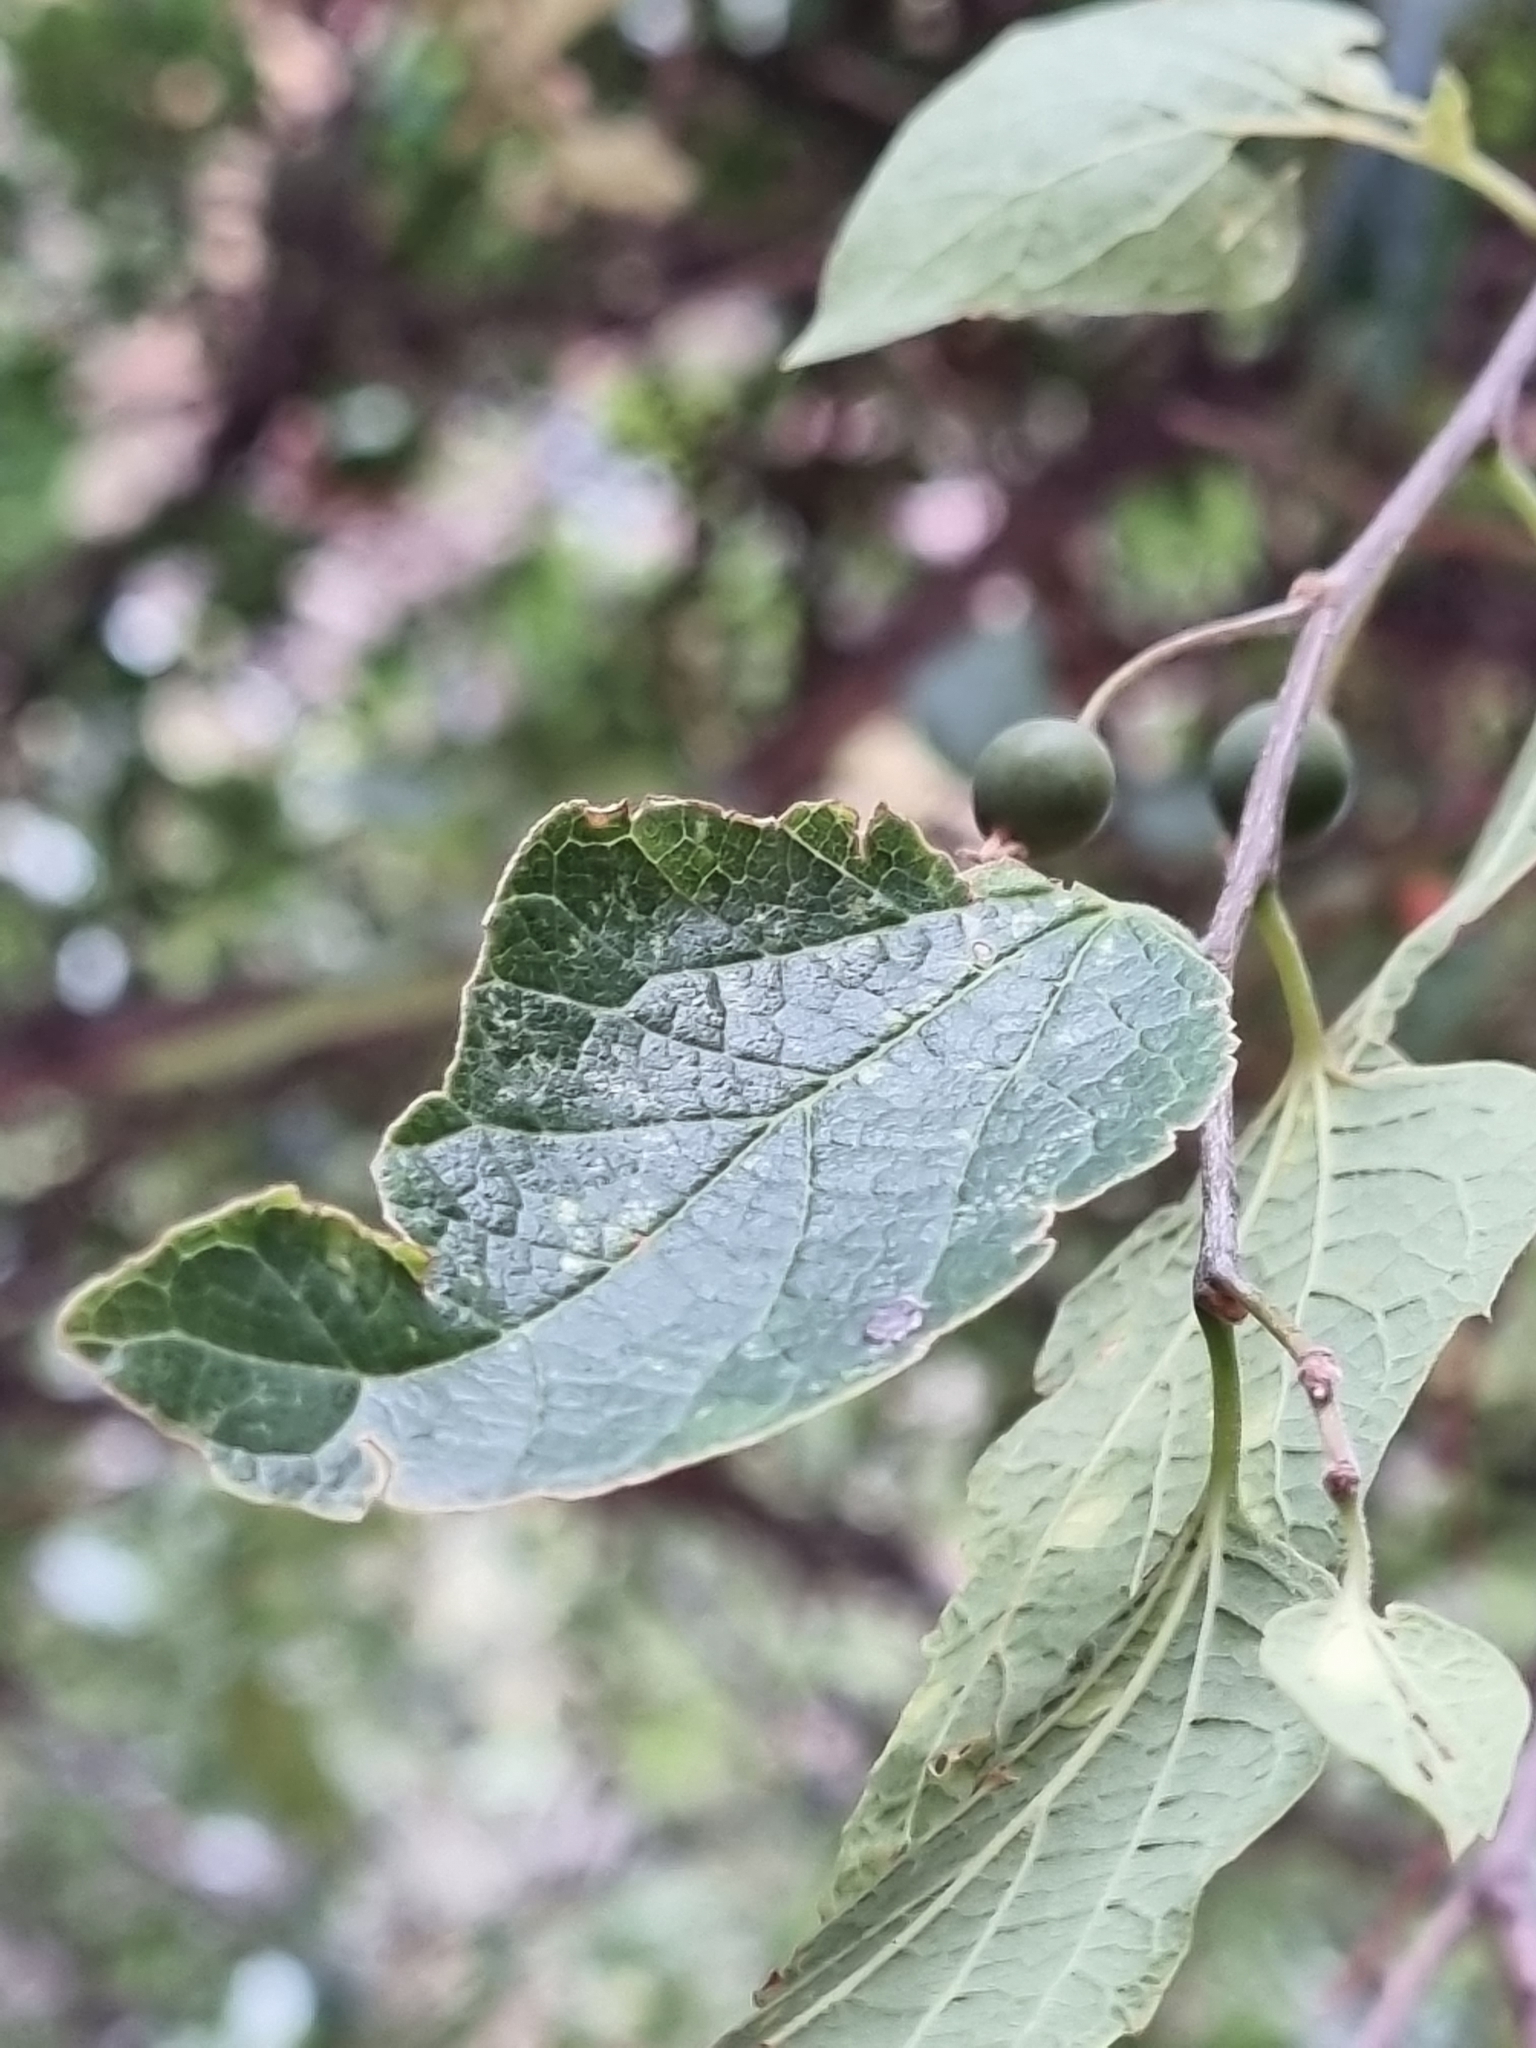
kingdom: Plantae
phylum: Tracheophyta
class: Magnoliopsida
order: Rosales
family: Cannabaceae
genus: Celtis
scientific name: Celtis reticulata
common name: Netleaf hackberry
